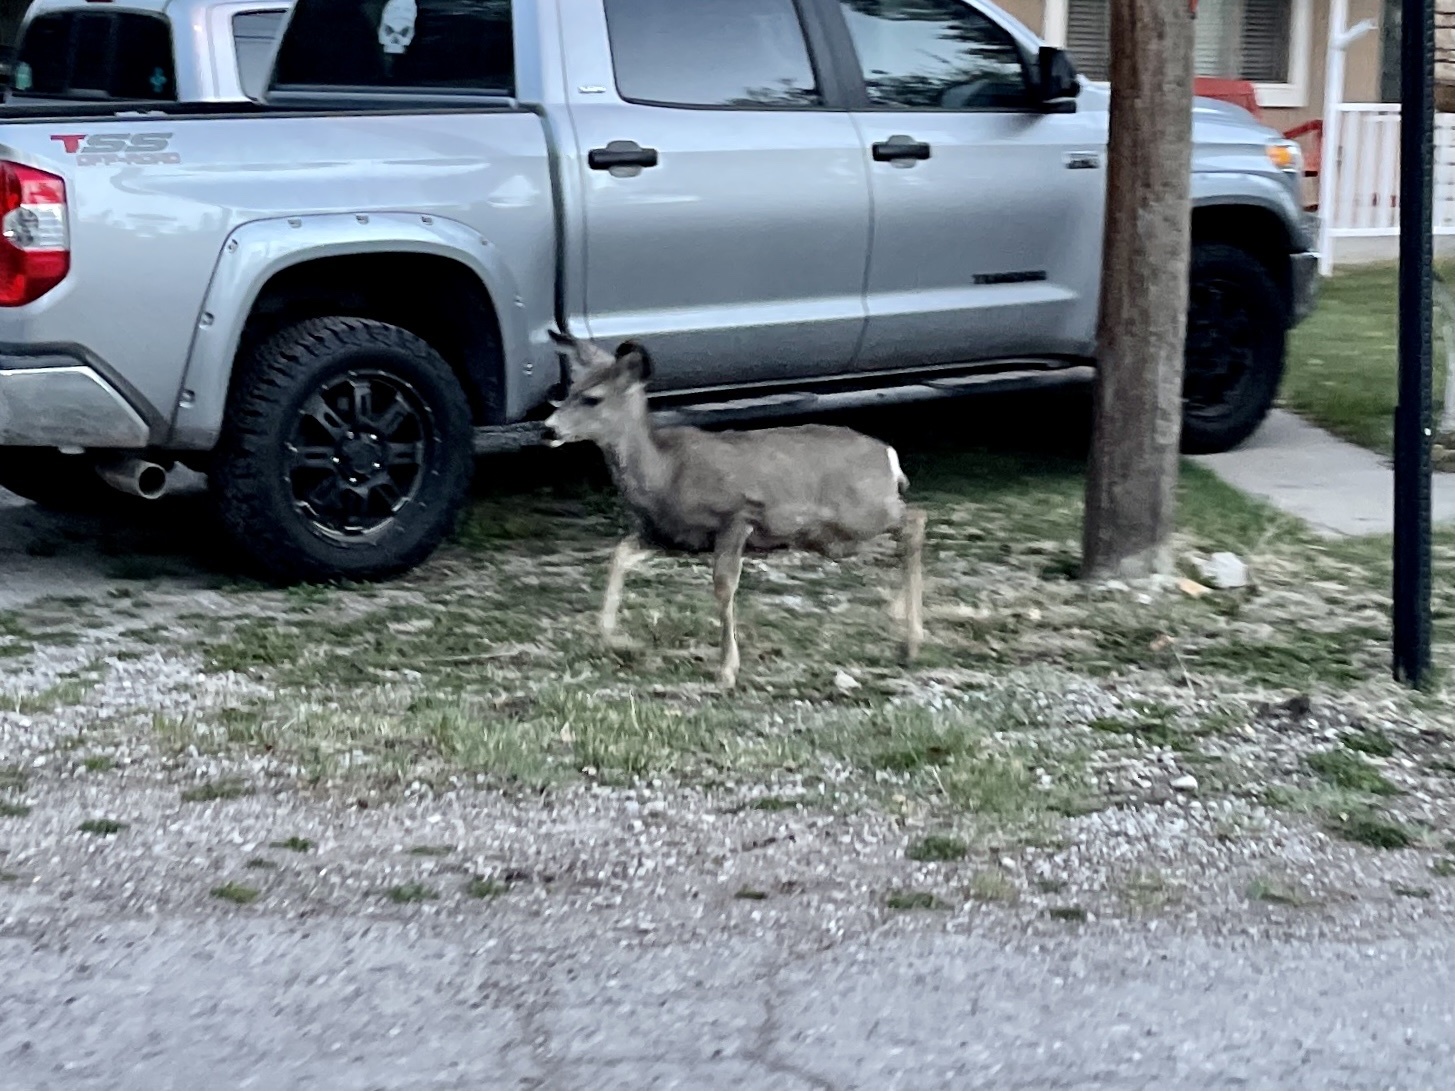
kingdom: Animalia
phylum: Chordata
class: Mammalia
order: Artiodactyla
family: Cervidae
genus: Odocoileus
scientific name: Odocoileus hemionus
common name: Mule deer
